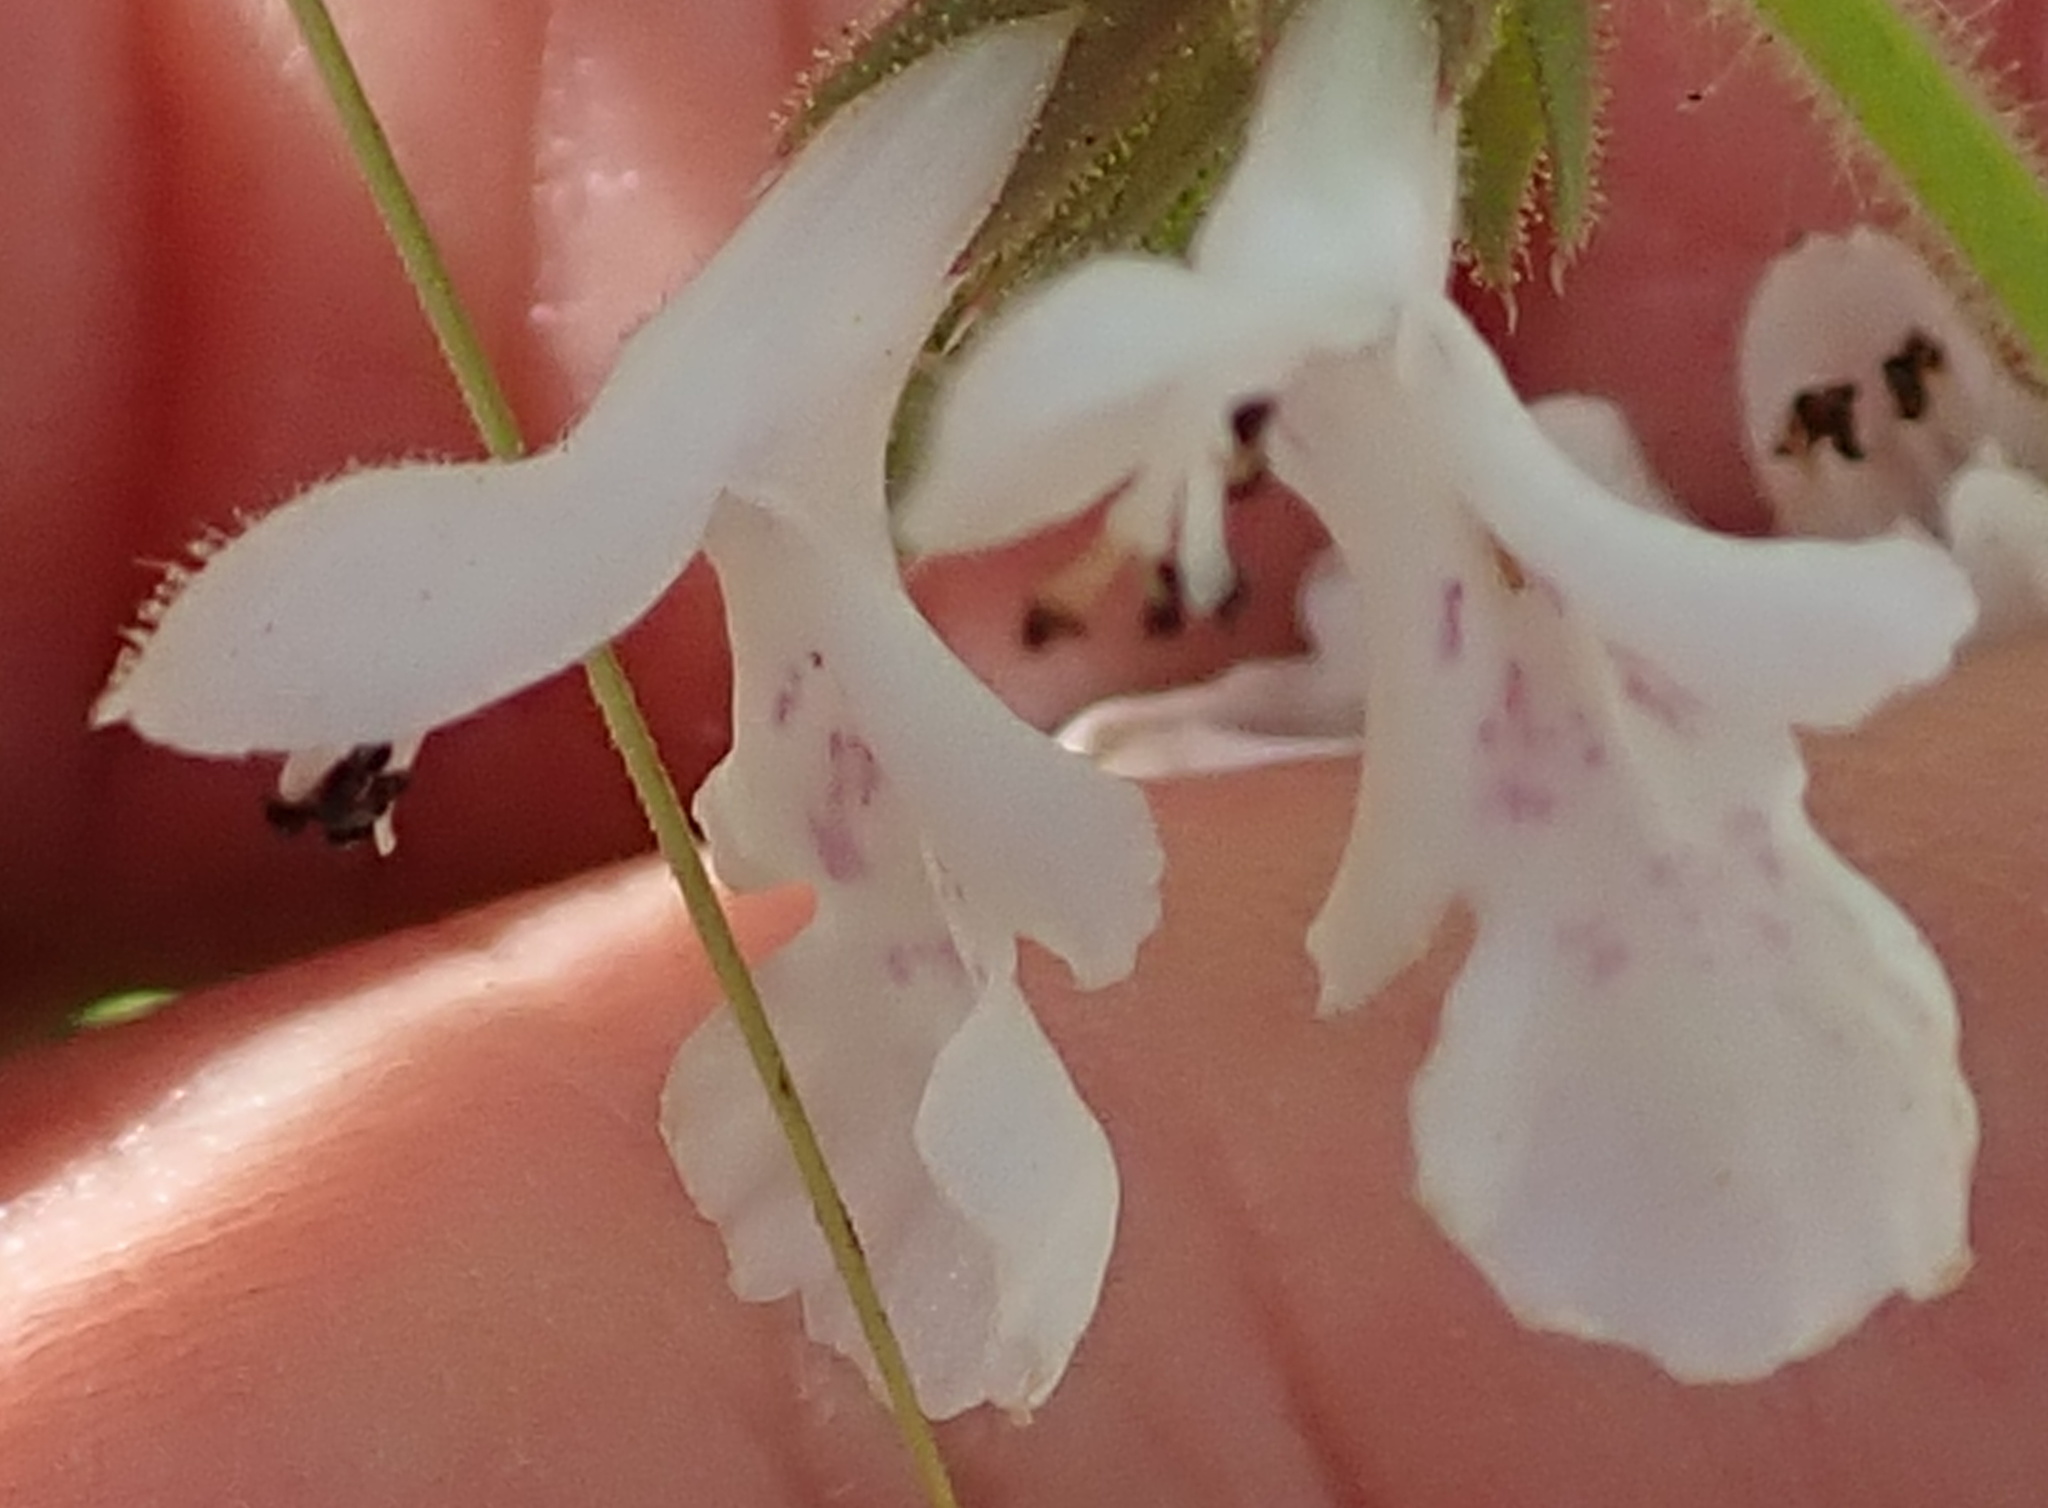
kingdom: Plantae
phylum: Tracheophyta
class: Magnoliopsida
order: Lamiales
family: Lamiaceae
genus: Stachys
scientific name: Stachys aethiopica
